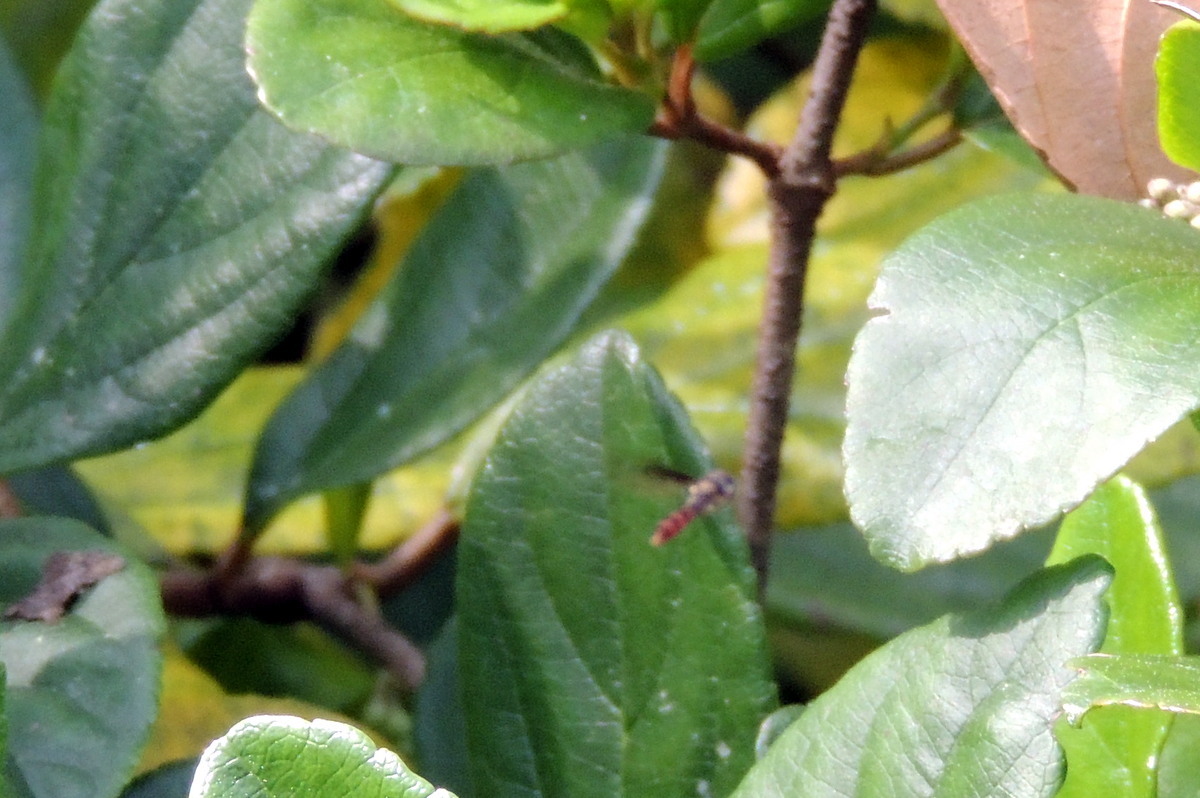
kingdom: Animalia
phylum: Arthropoda
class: Insecta
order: Diptera
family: Syrphidae
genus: Ocyptamus
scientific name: Ocyptamus fuscipennis
